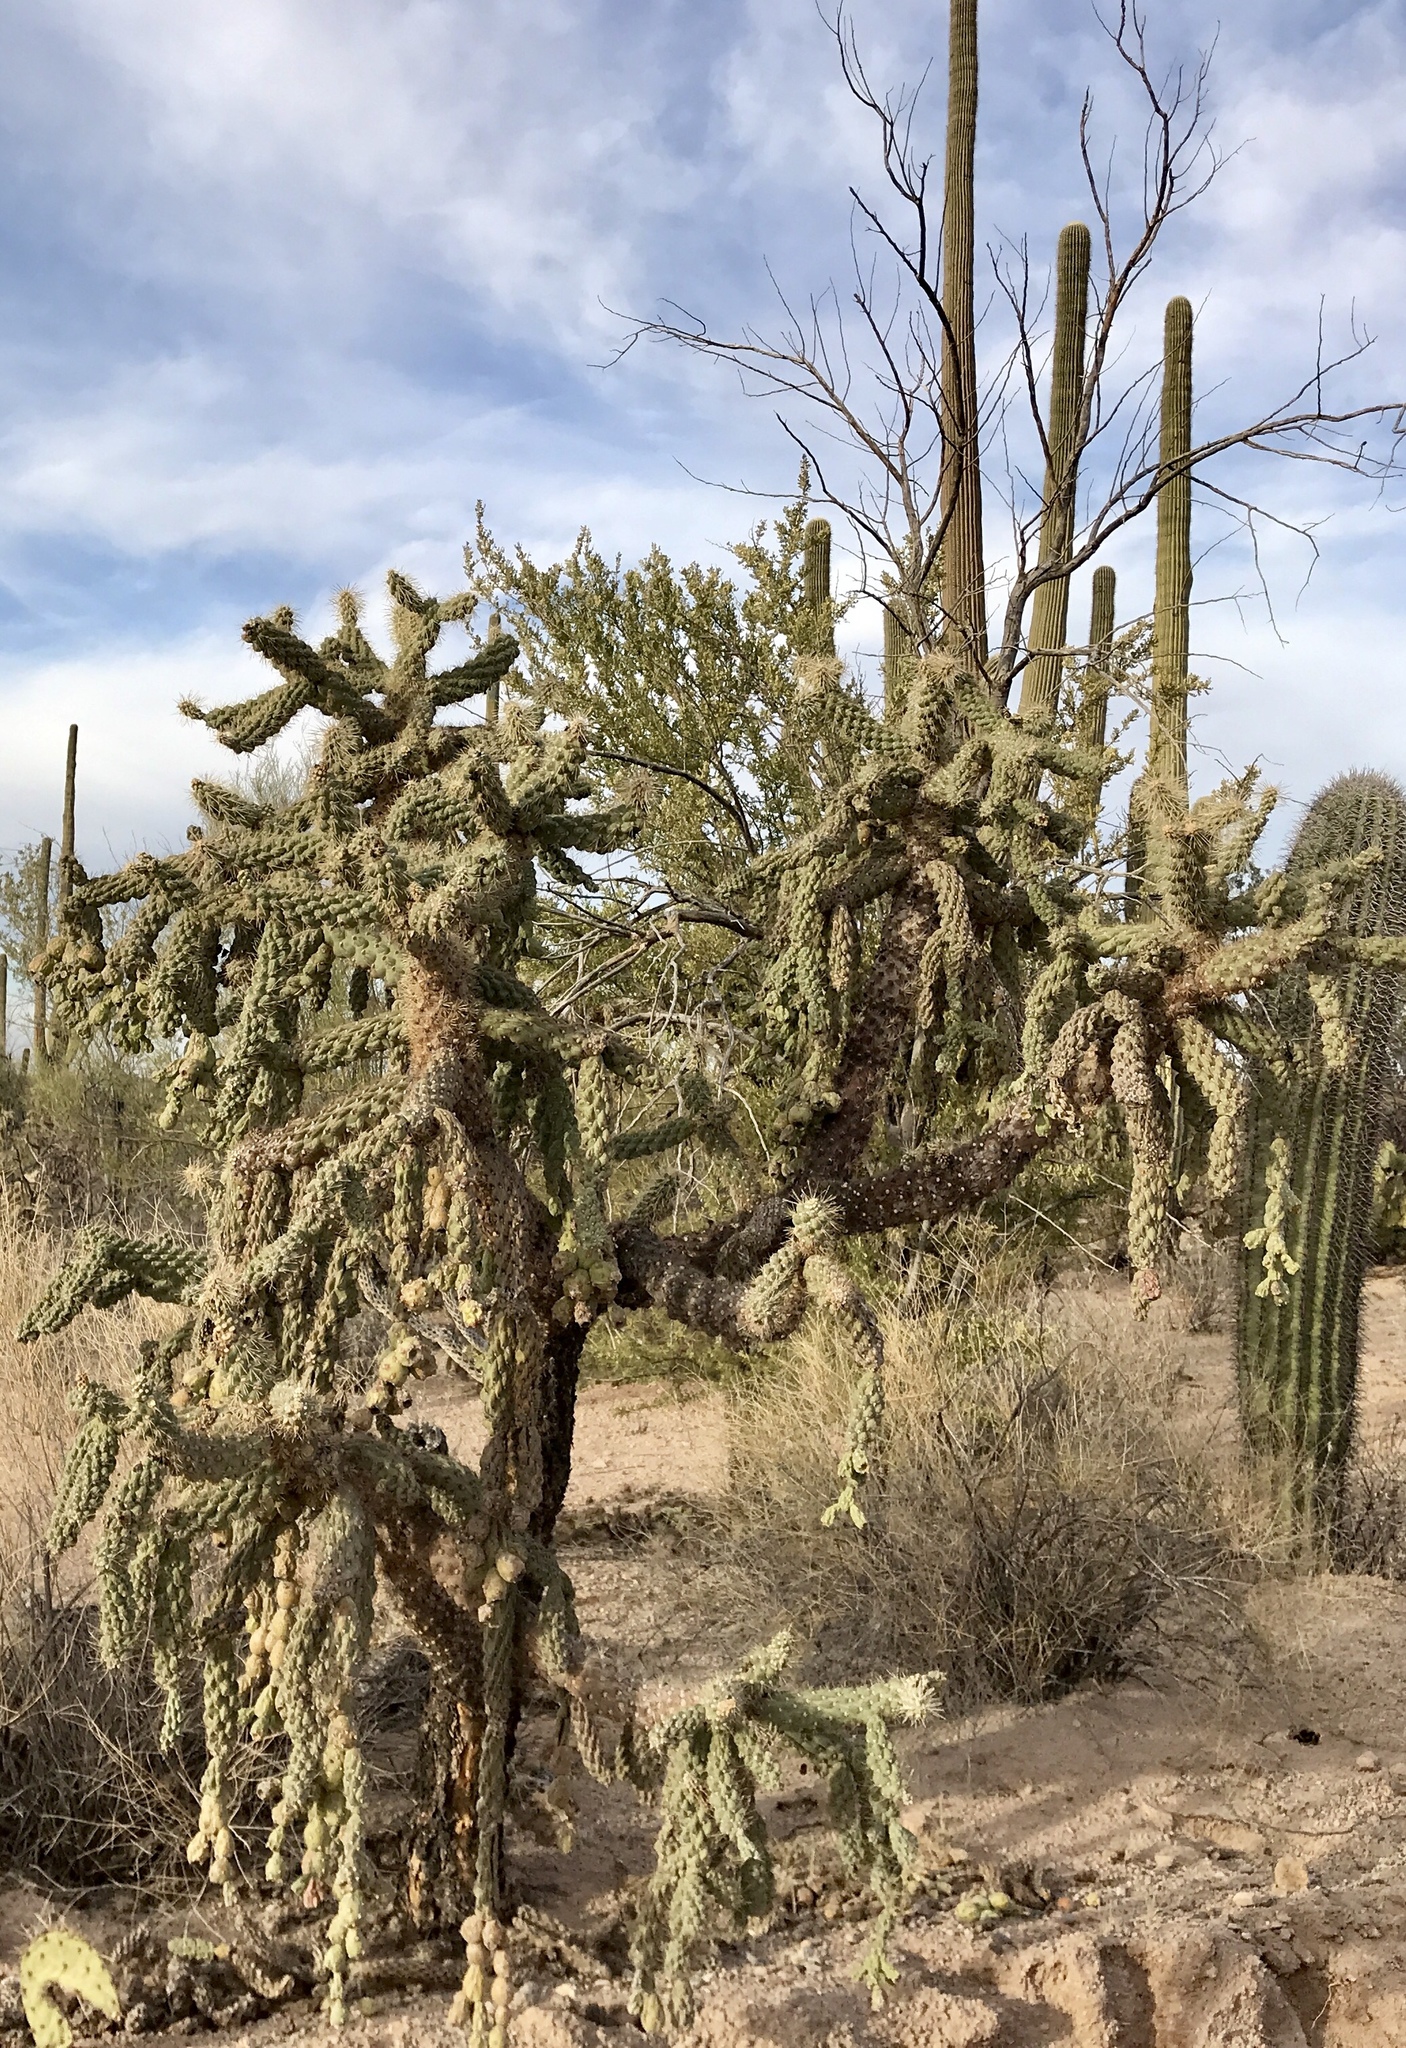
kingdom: Plantae
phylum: Tracheophyta
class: Magnoliopsida
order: Caryophyllales
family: Cactaceae
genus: Cylindropuntia
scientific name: Cylindropuntia fulgida
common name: Jumping cholla
